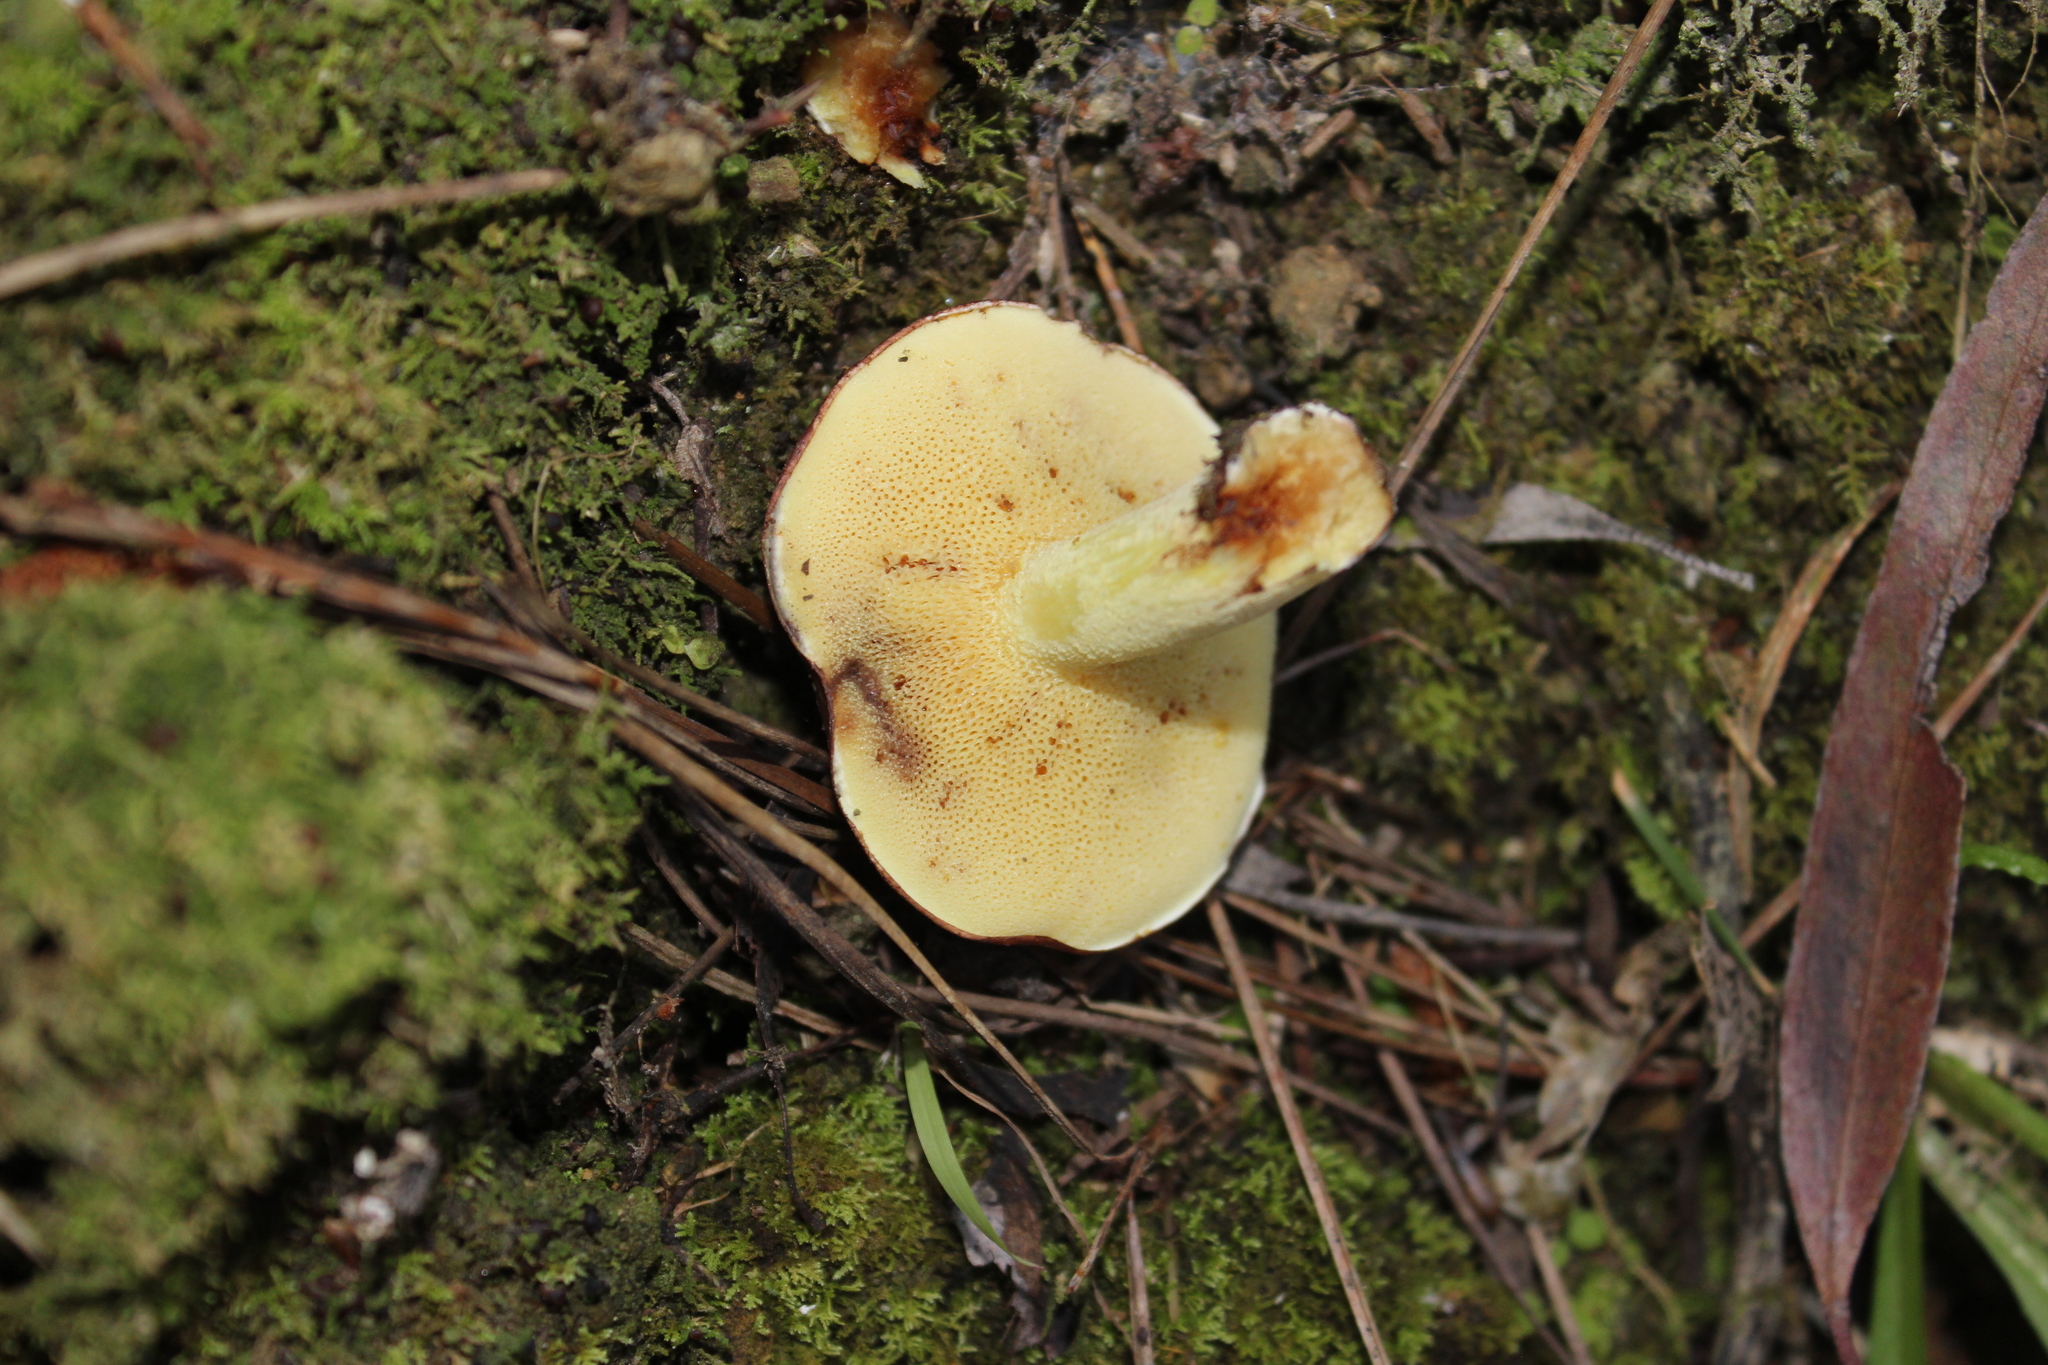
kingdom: Fungi
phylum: Basidiomycota
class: Agaricomycetes
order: Boletales
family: Suillaceae
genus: Suillus
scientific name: Suillus granulatus
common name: Weeping bolete
